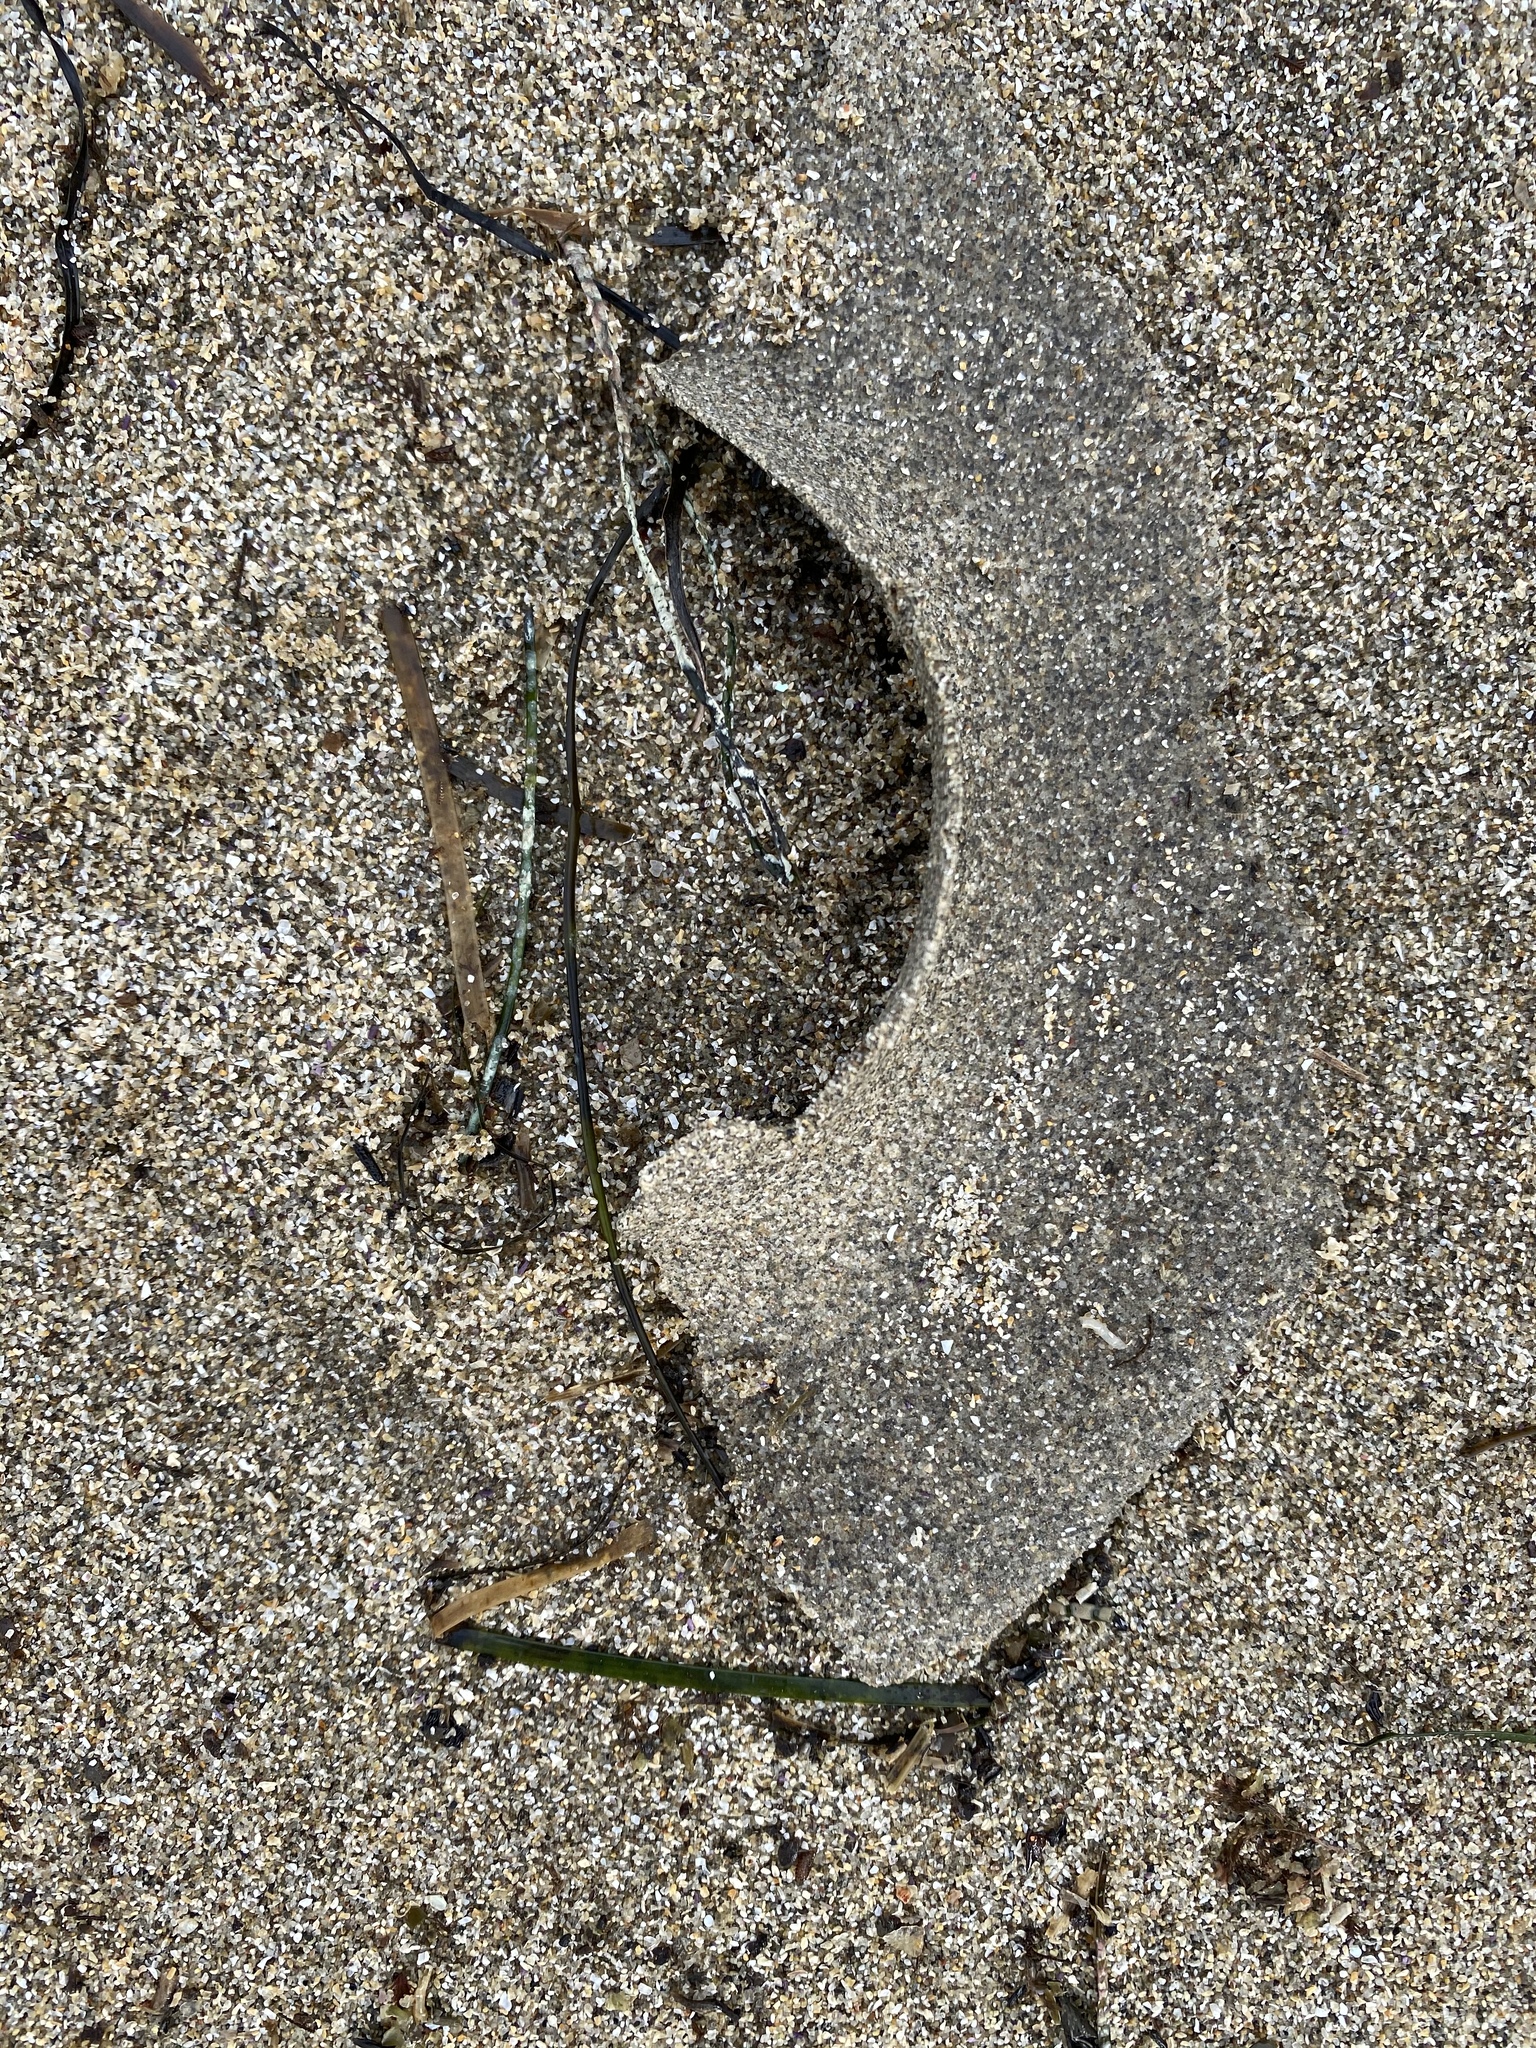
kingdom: Animalia
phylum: Mollusca
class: Gastropoda
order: Littorinimorpha
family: Naticidae
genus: Neverita
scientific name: Neverita lewisii
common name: Lewis' moonsnail
